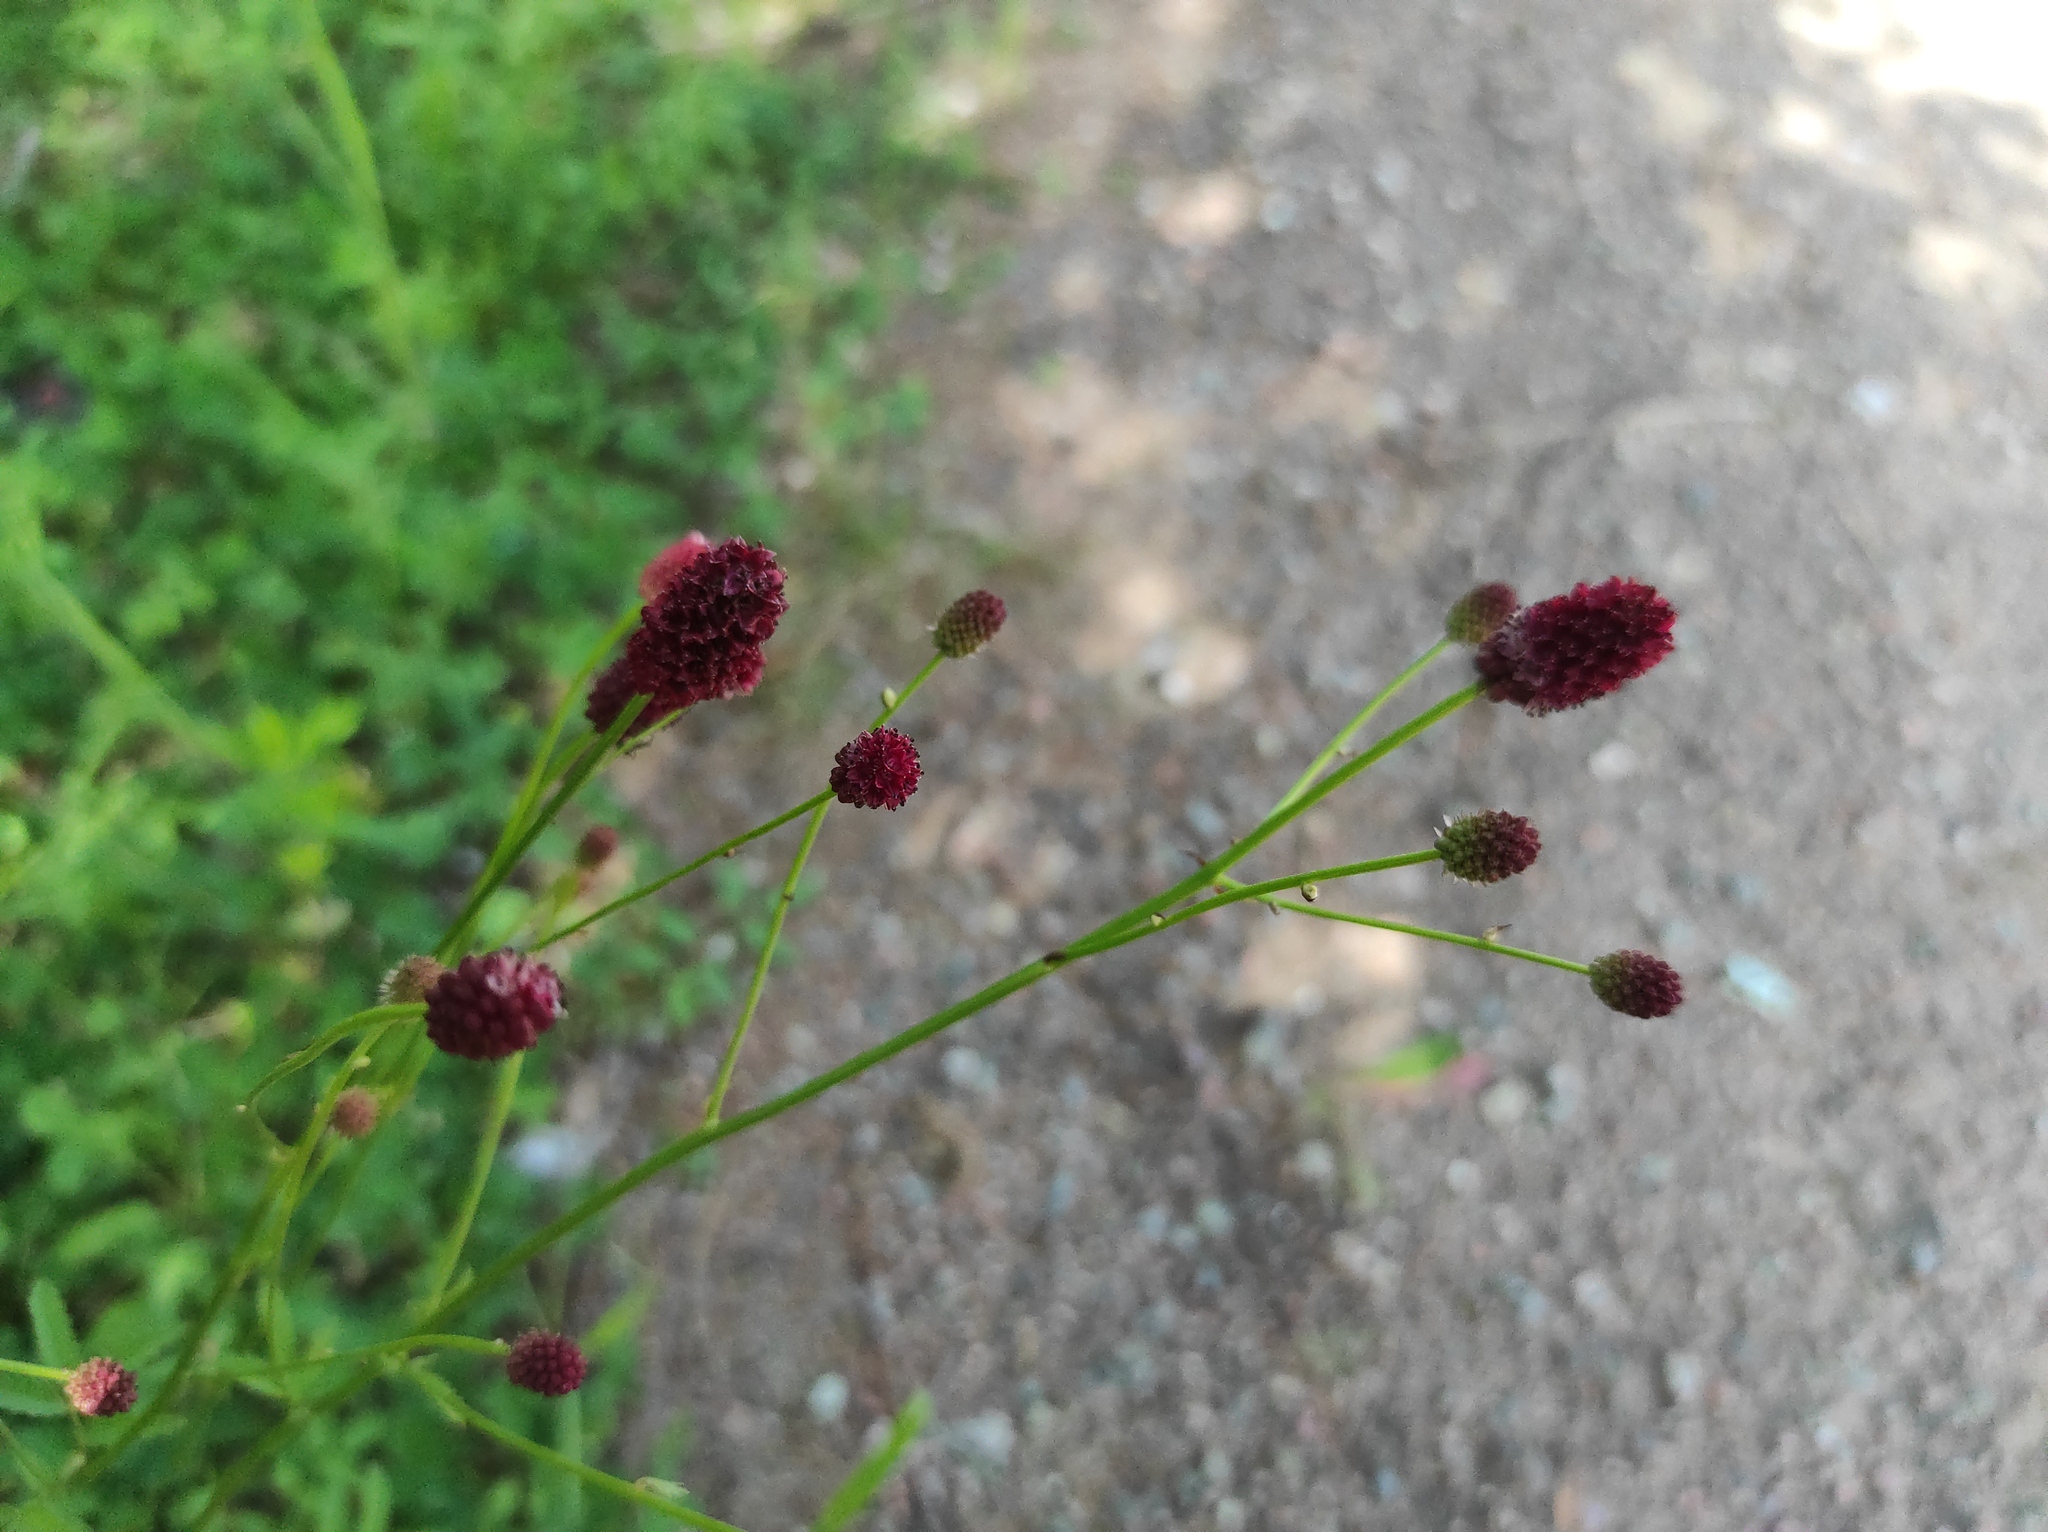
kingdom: Plantae
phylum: Tracheophyta
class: Magnoliopsida
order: Rosales
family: Rosaceae
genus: Sanguisorba
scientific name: Sanguisorba officinalis
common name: Great burnet
